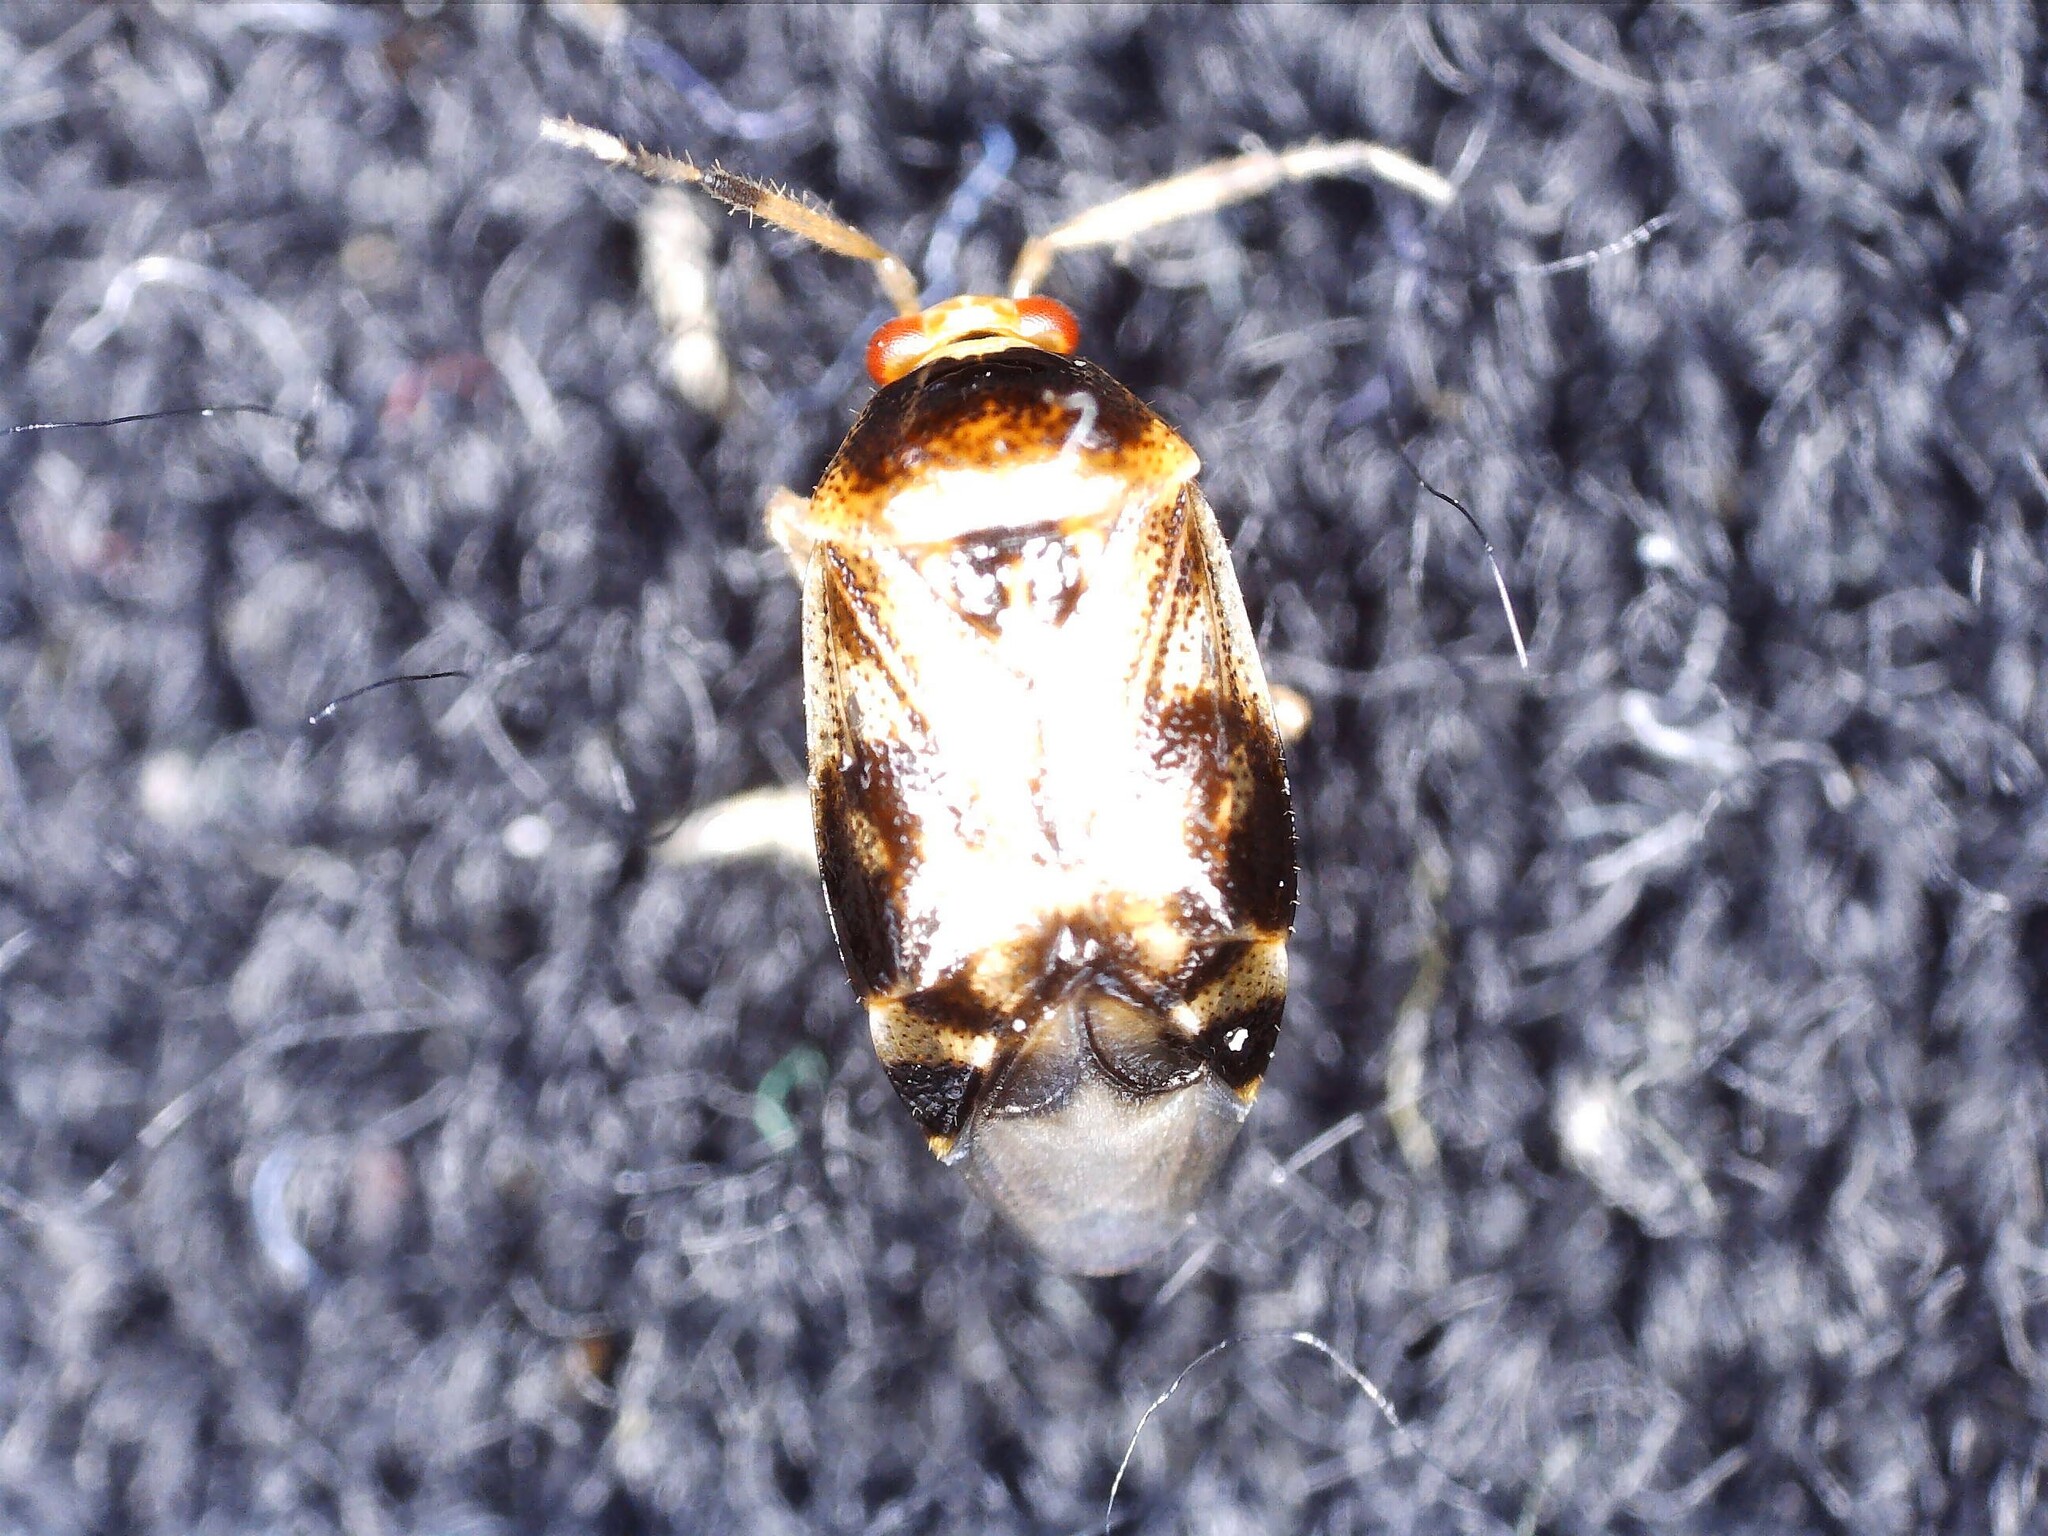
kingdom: Animalia
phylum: Arthropoda
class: Insecta
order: Hemiptera
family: Miridae
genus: Deraeocoris
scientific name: Deraeocoris lutescens
